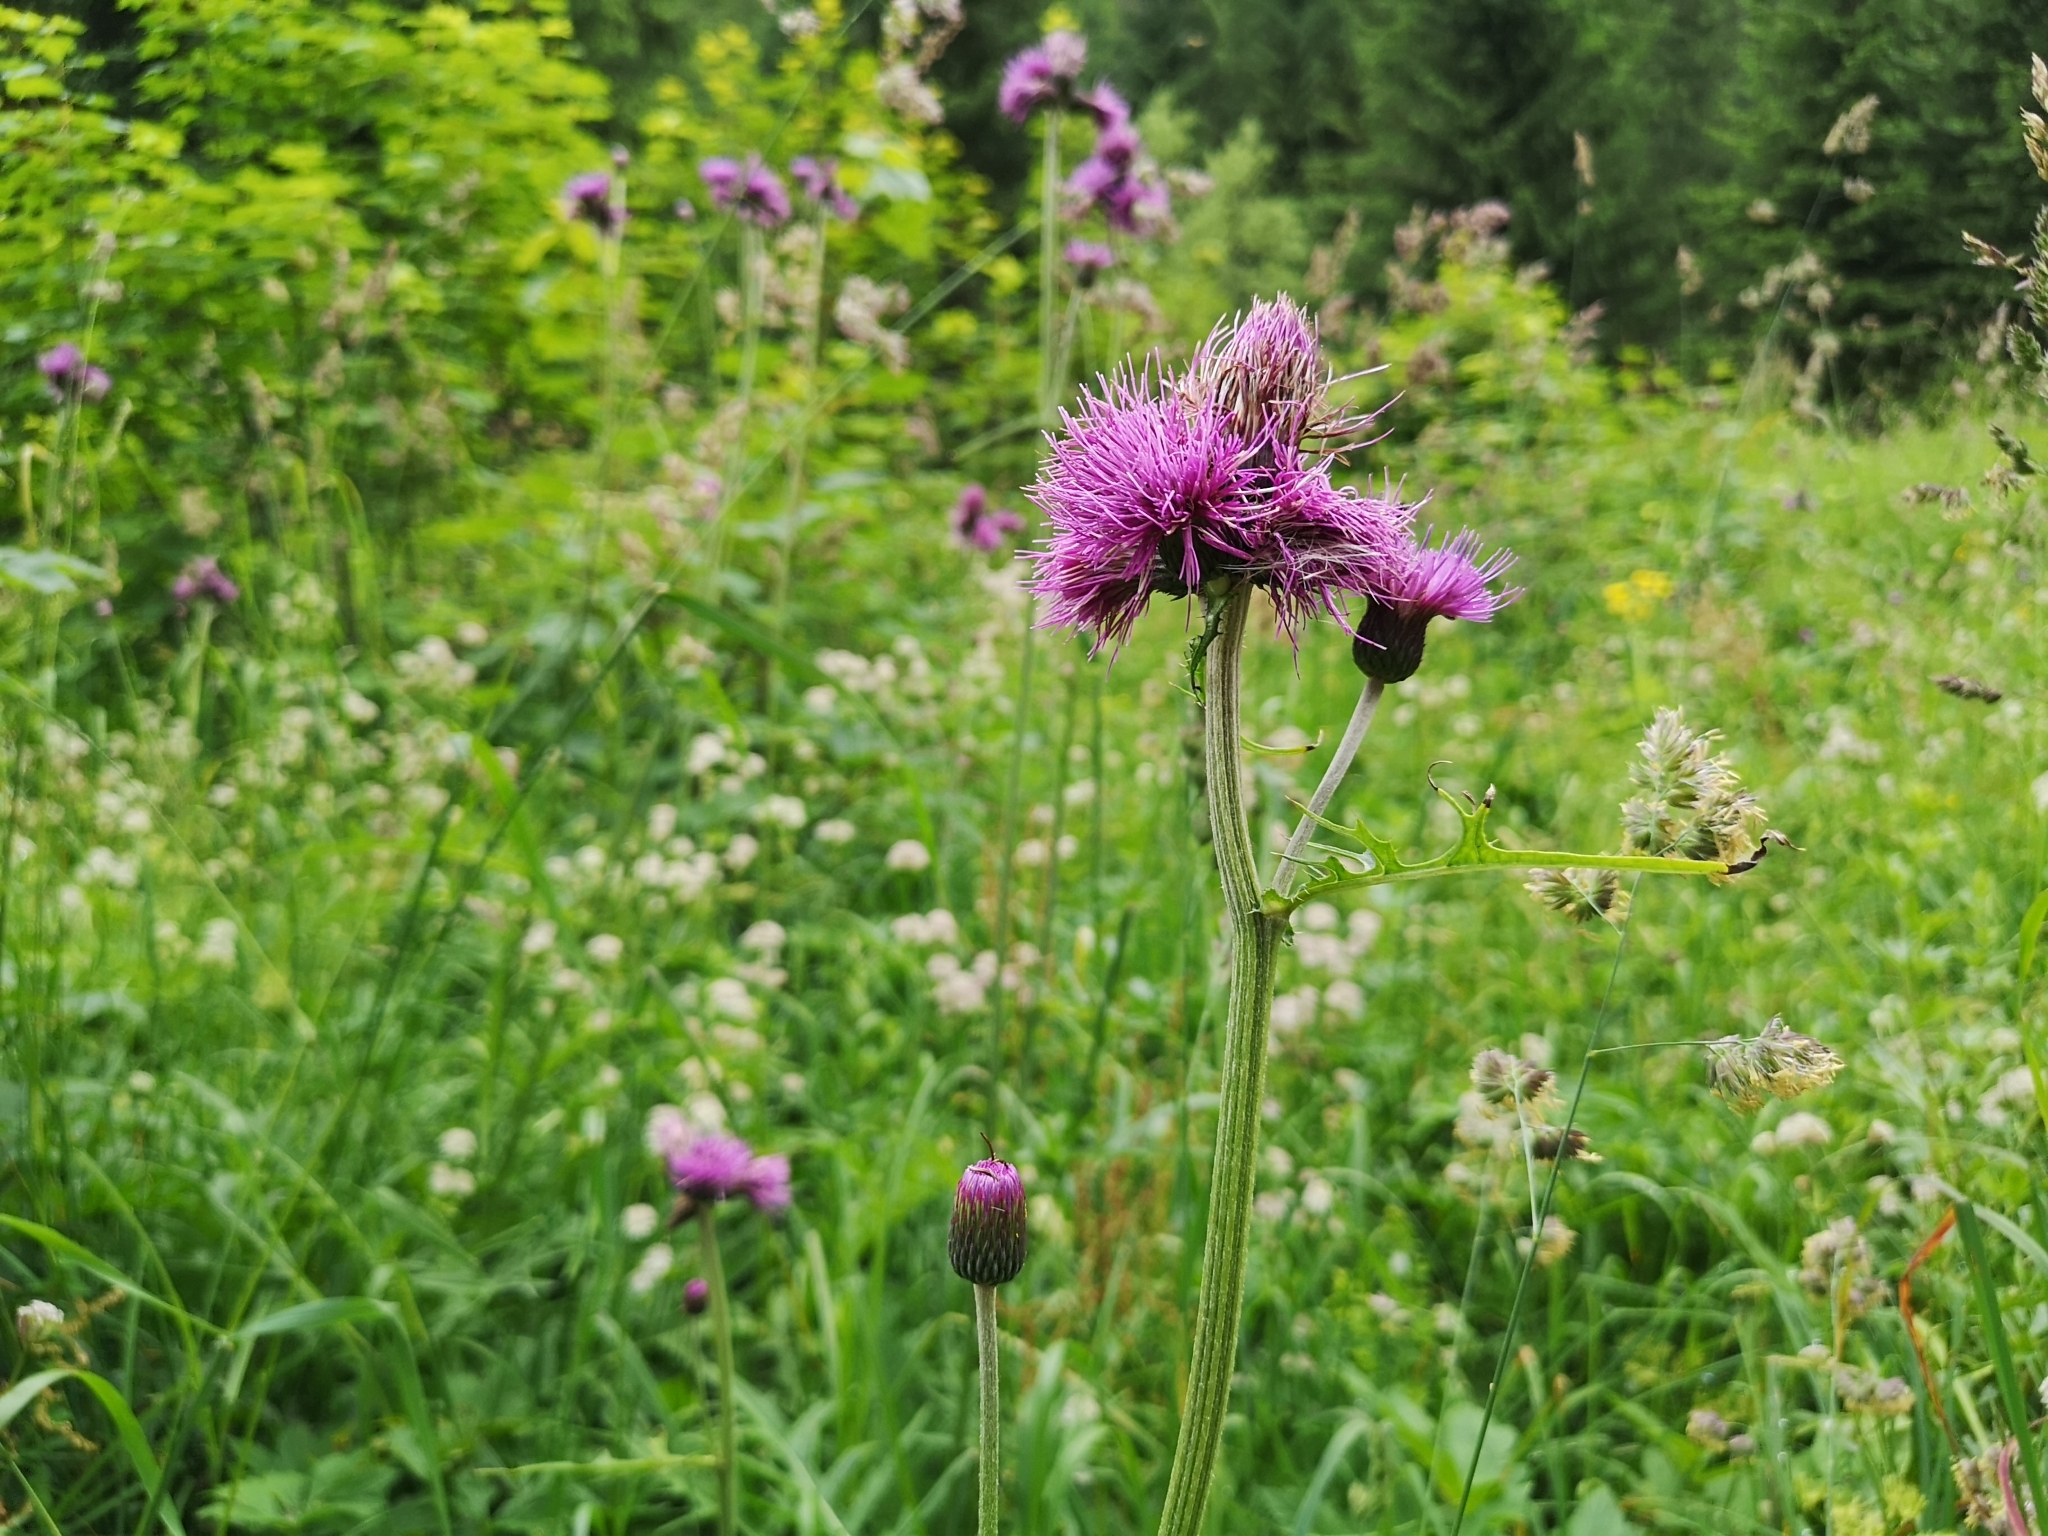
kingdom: Plantae
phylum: Tracheophyta
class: Magnoliopsida
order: Asterales
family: Asteraceae
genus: Cirsium
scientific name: Cirsium rivulare
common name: Brook thistle
